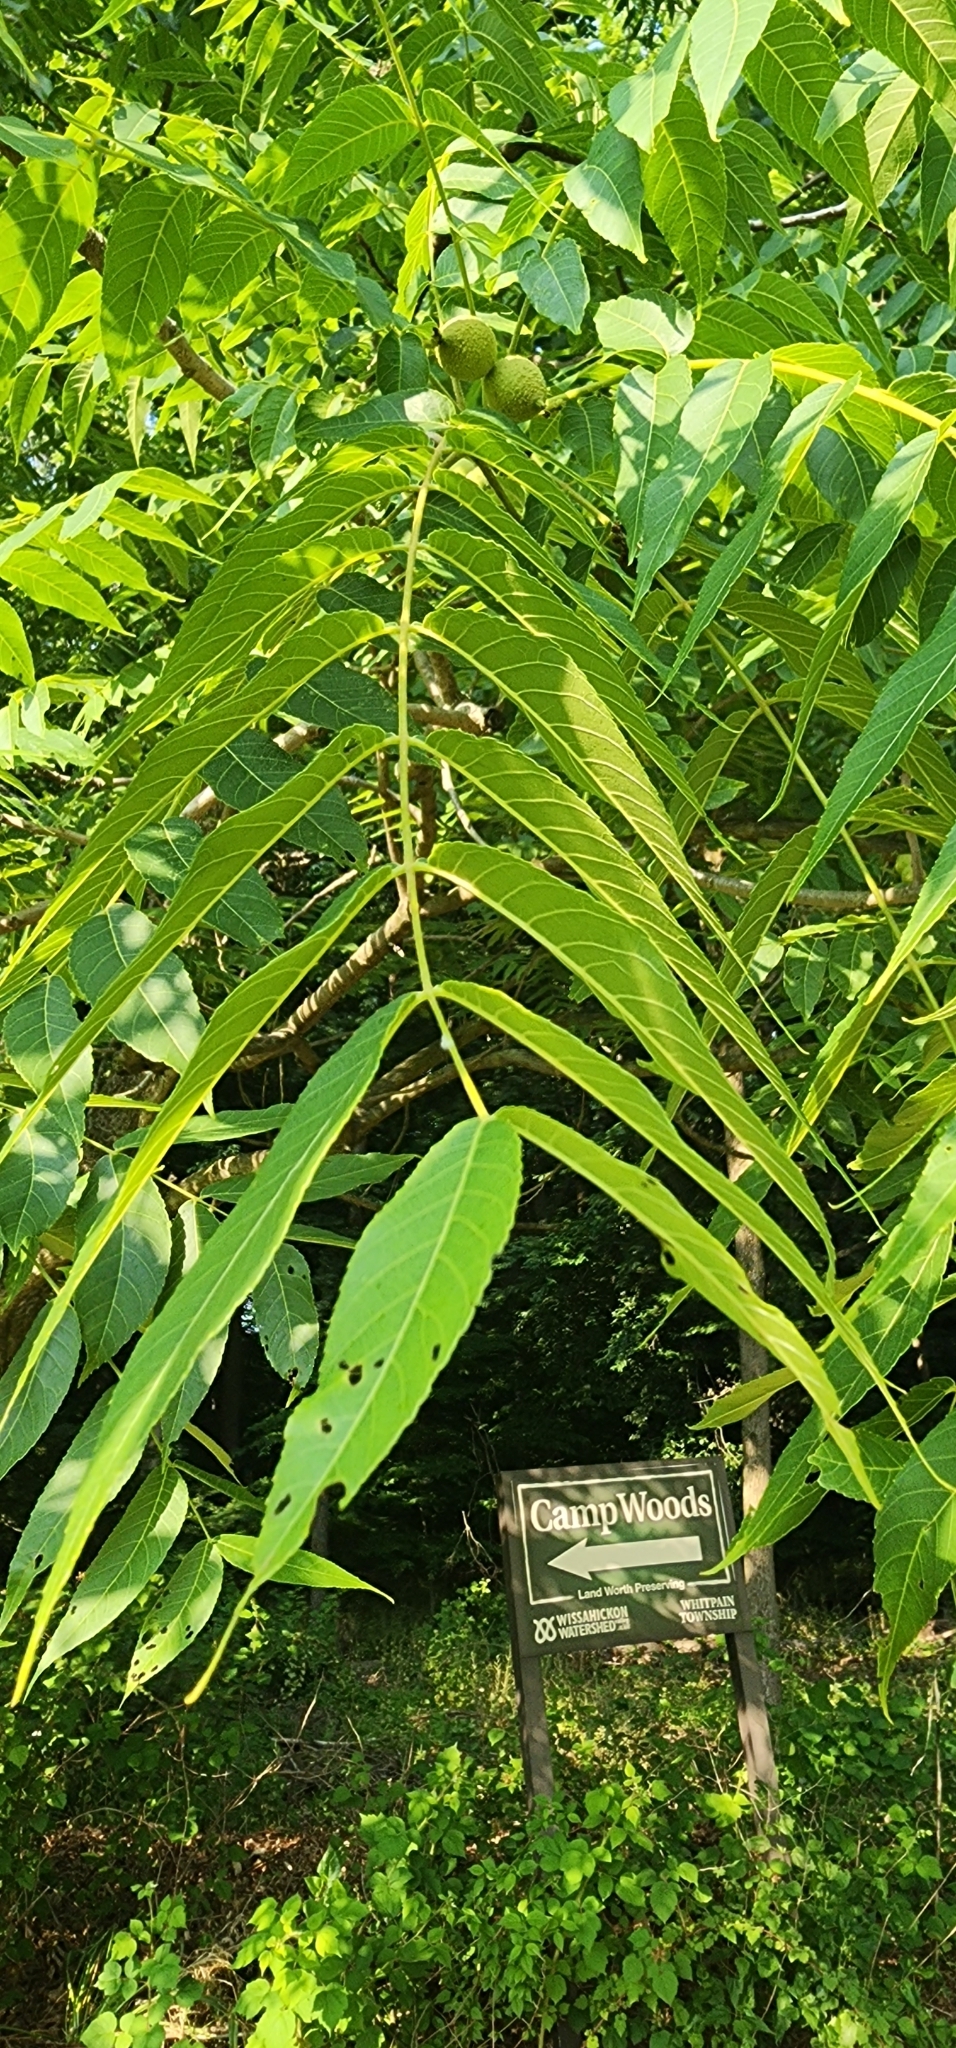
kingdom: Plantae
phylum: Tracheophyta
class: Magnoliopsida
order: Fagales
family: Juglandaceae
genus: Juglans
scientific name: Juglans nigra
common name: Black walnut
